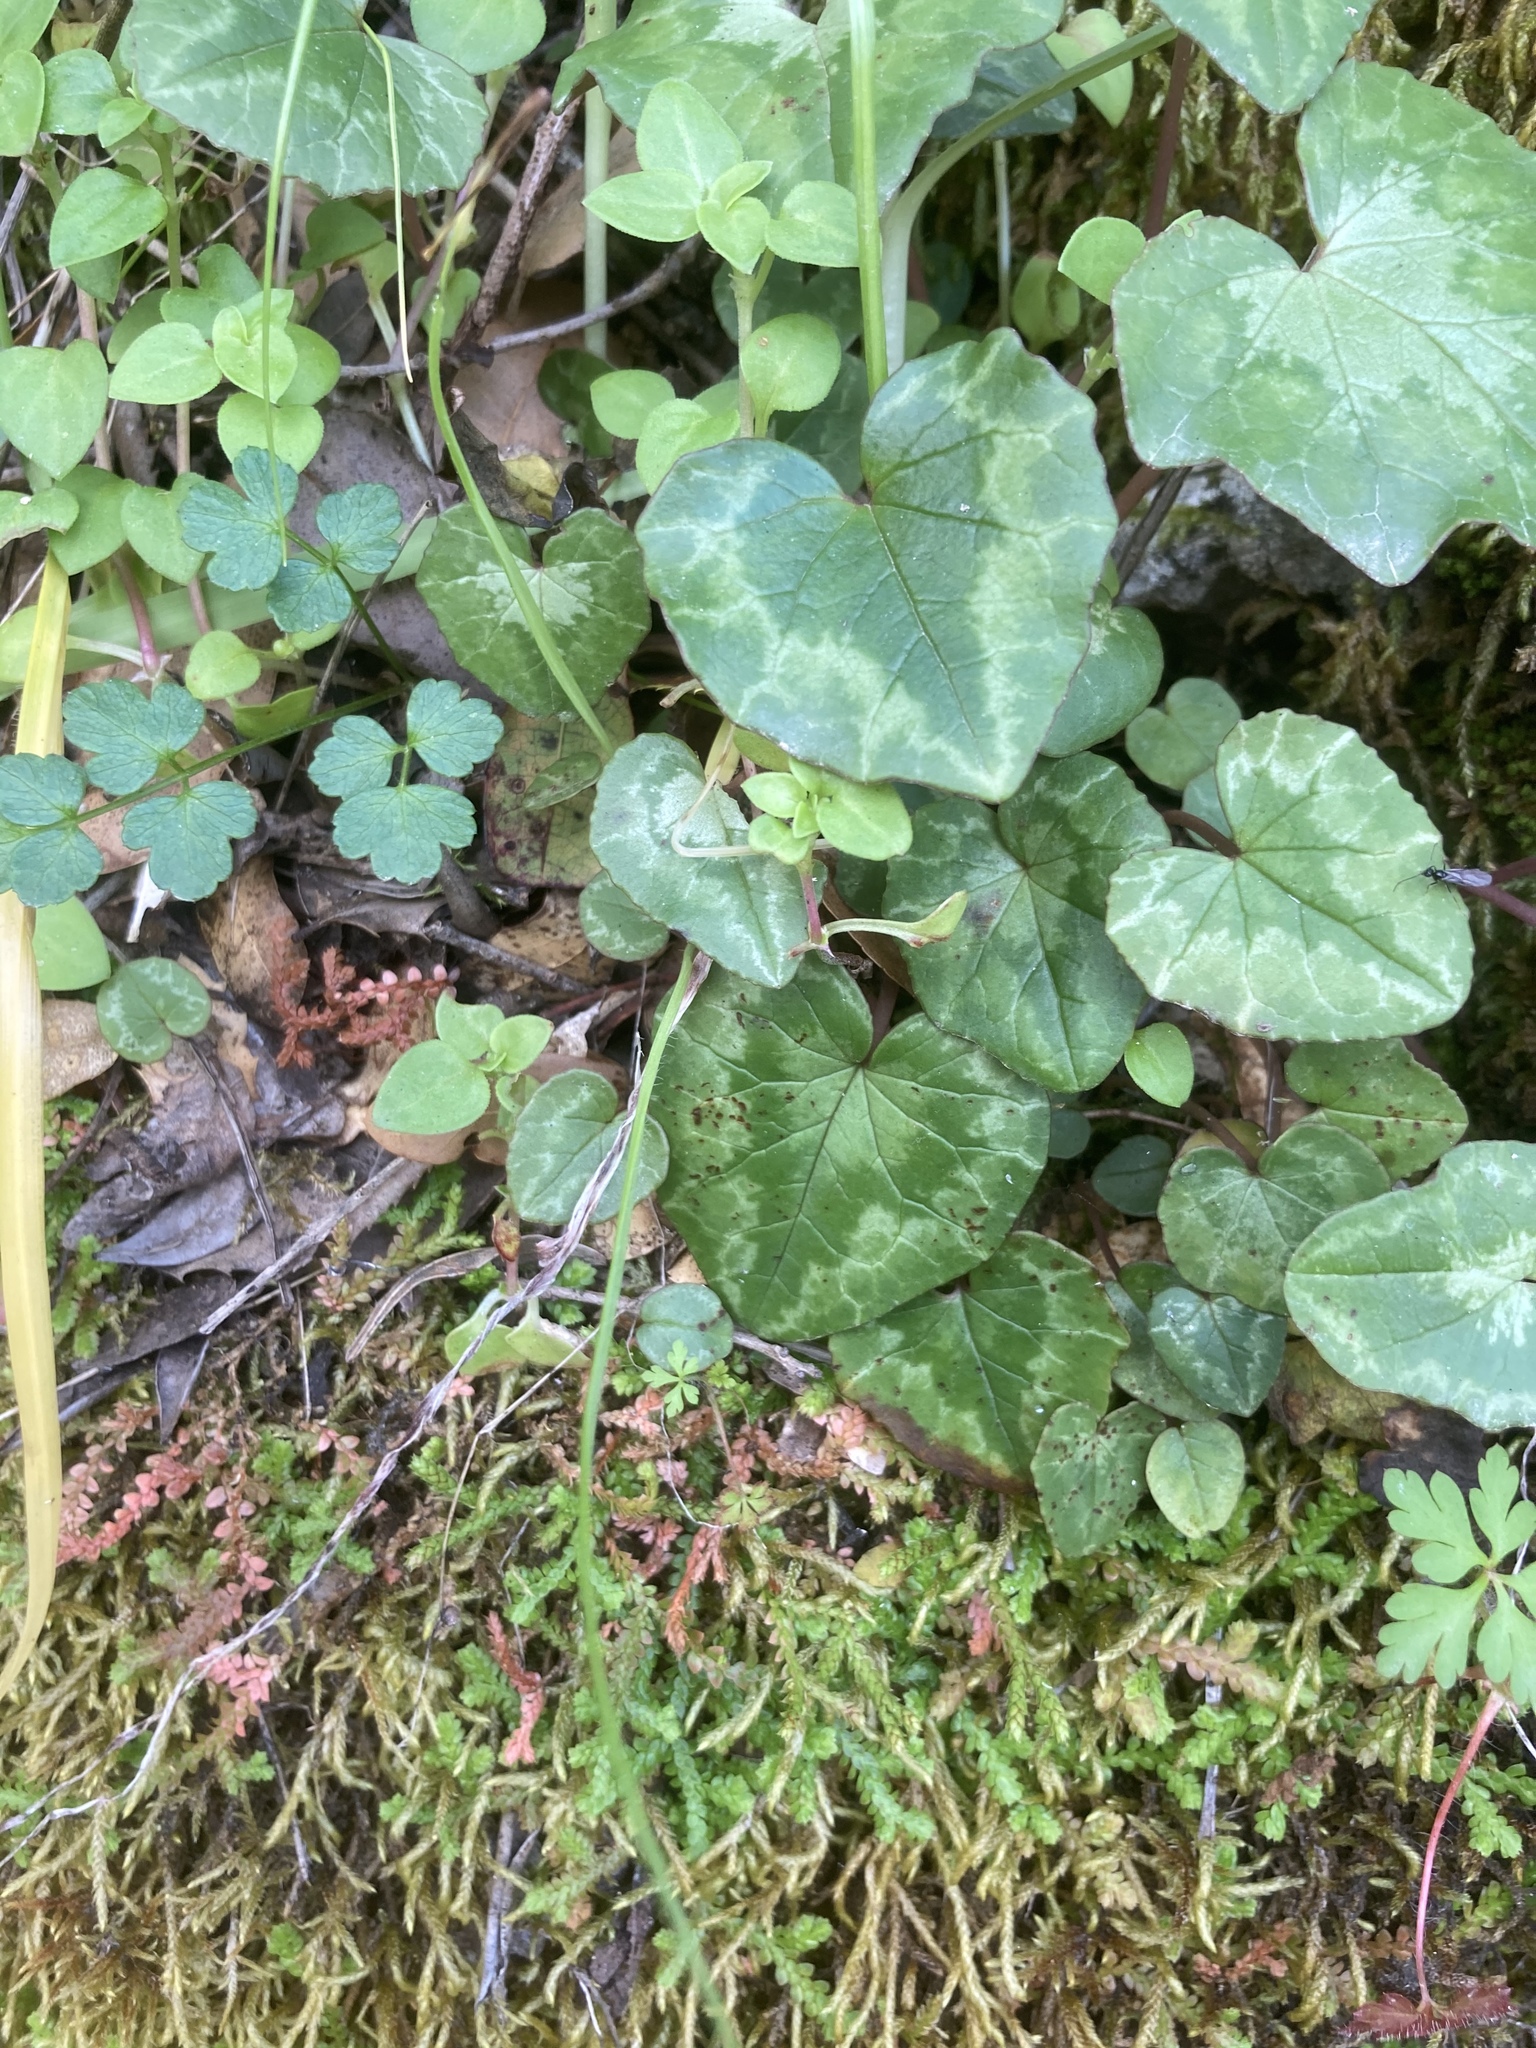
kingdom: Plantae
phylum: Tracheophyta
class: Magnoliopsida
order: Ericales
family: Primulaceae
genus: Cyclamen
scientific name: Cyclamen hederifolium
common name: Sowbread
